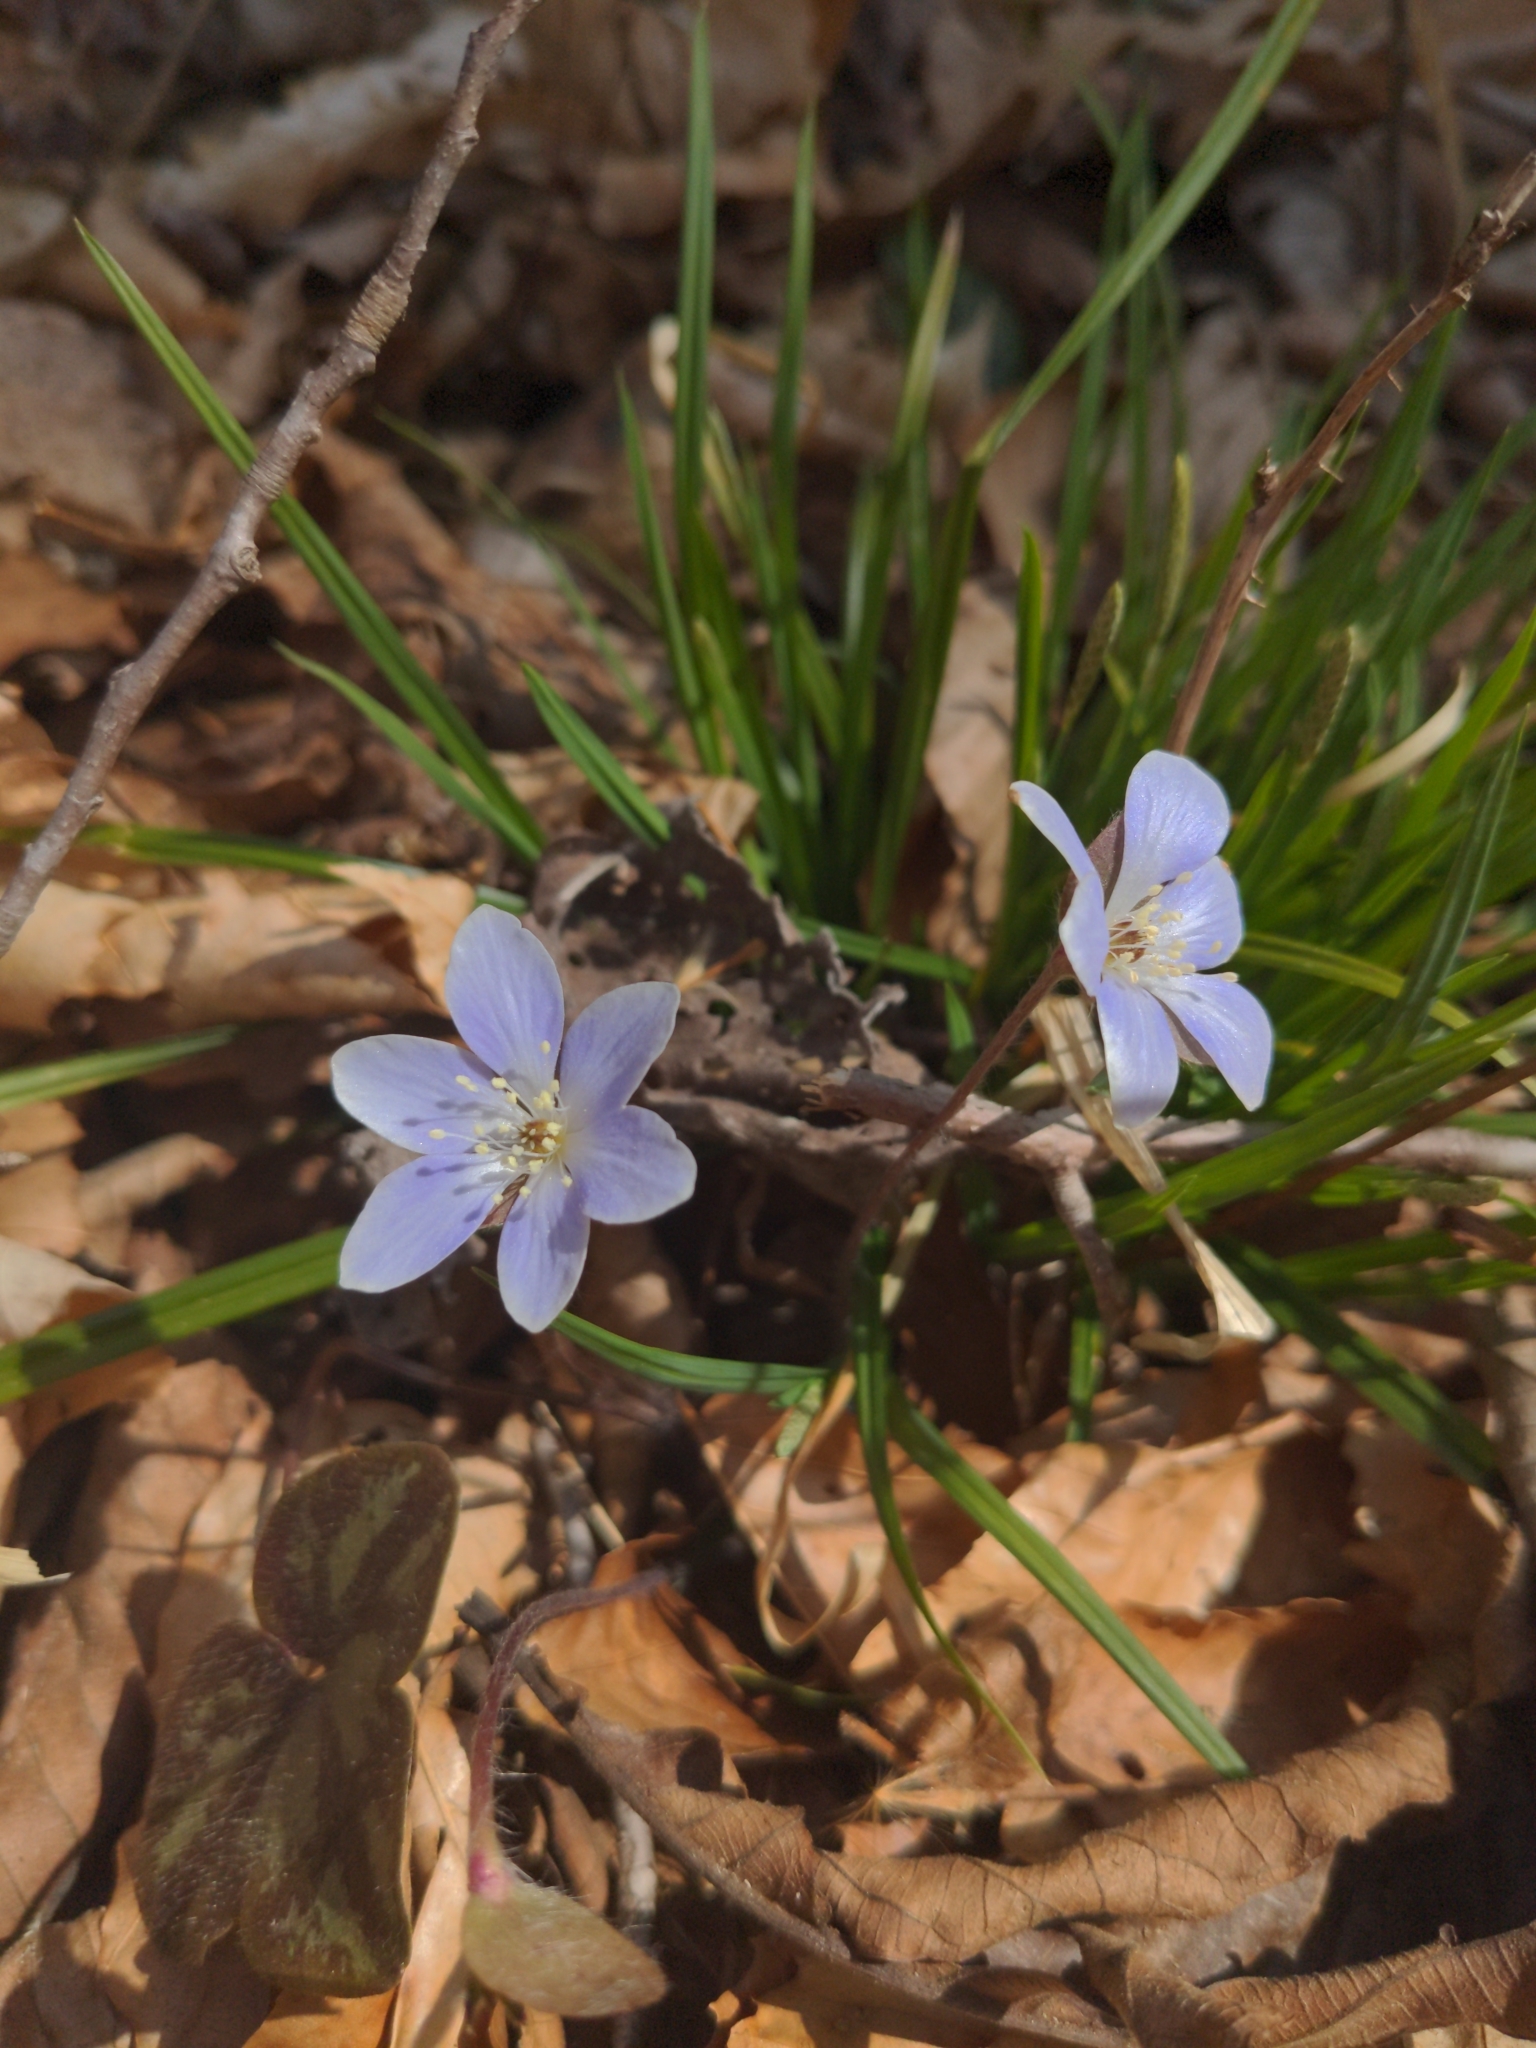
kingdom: Plantae
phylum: Tracheophyta
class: Magnoliopsida
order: Ranunculales
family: Ranunculaceae
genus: Hepatica
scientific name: Hepatica americana
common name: American hepatica
